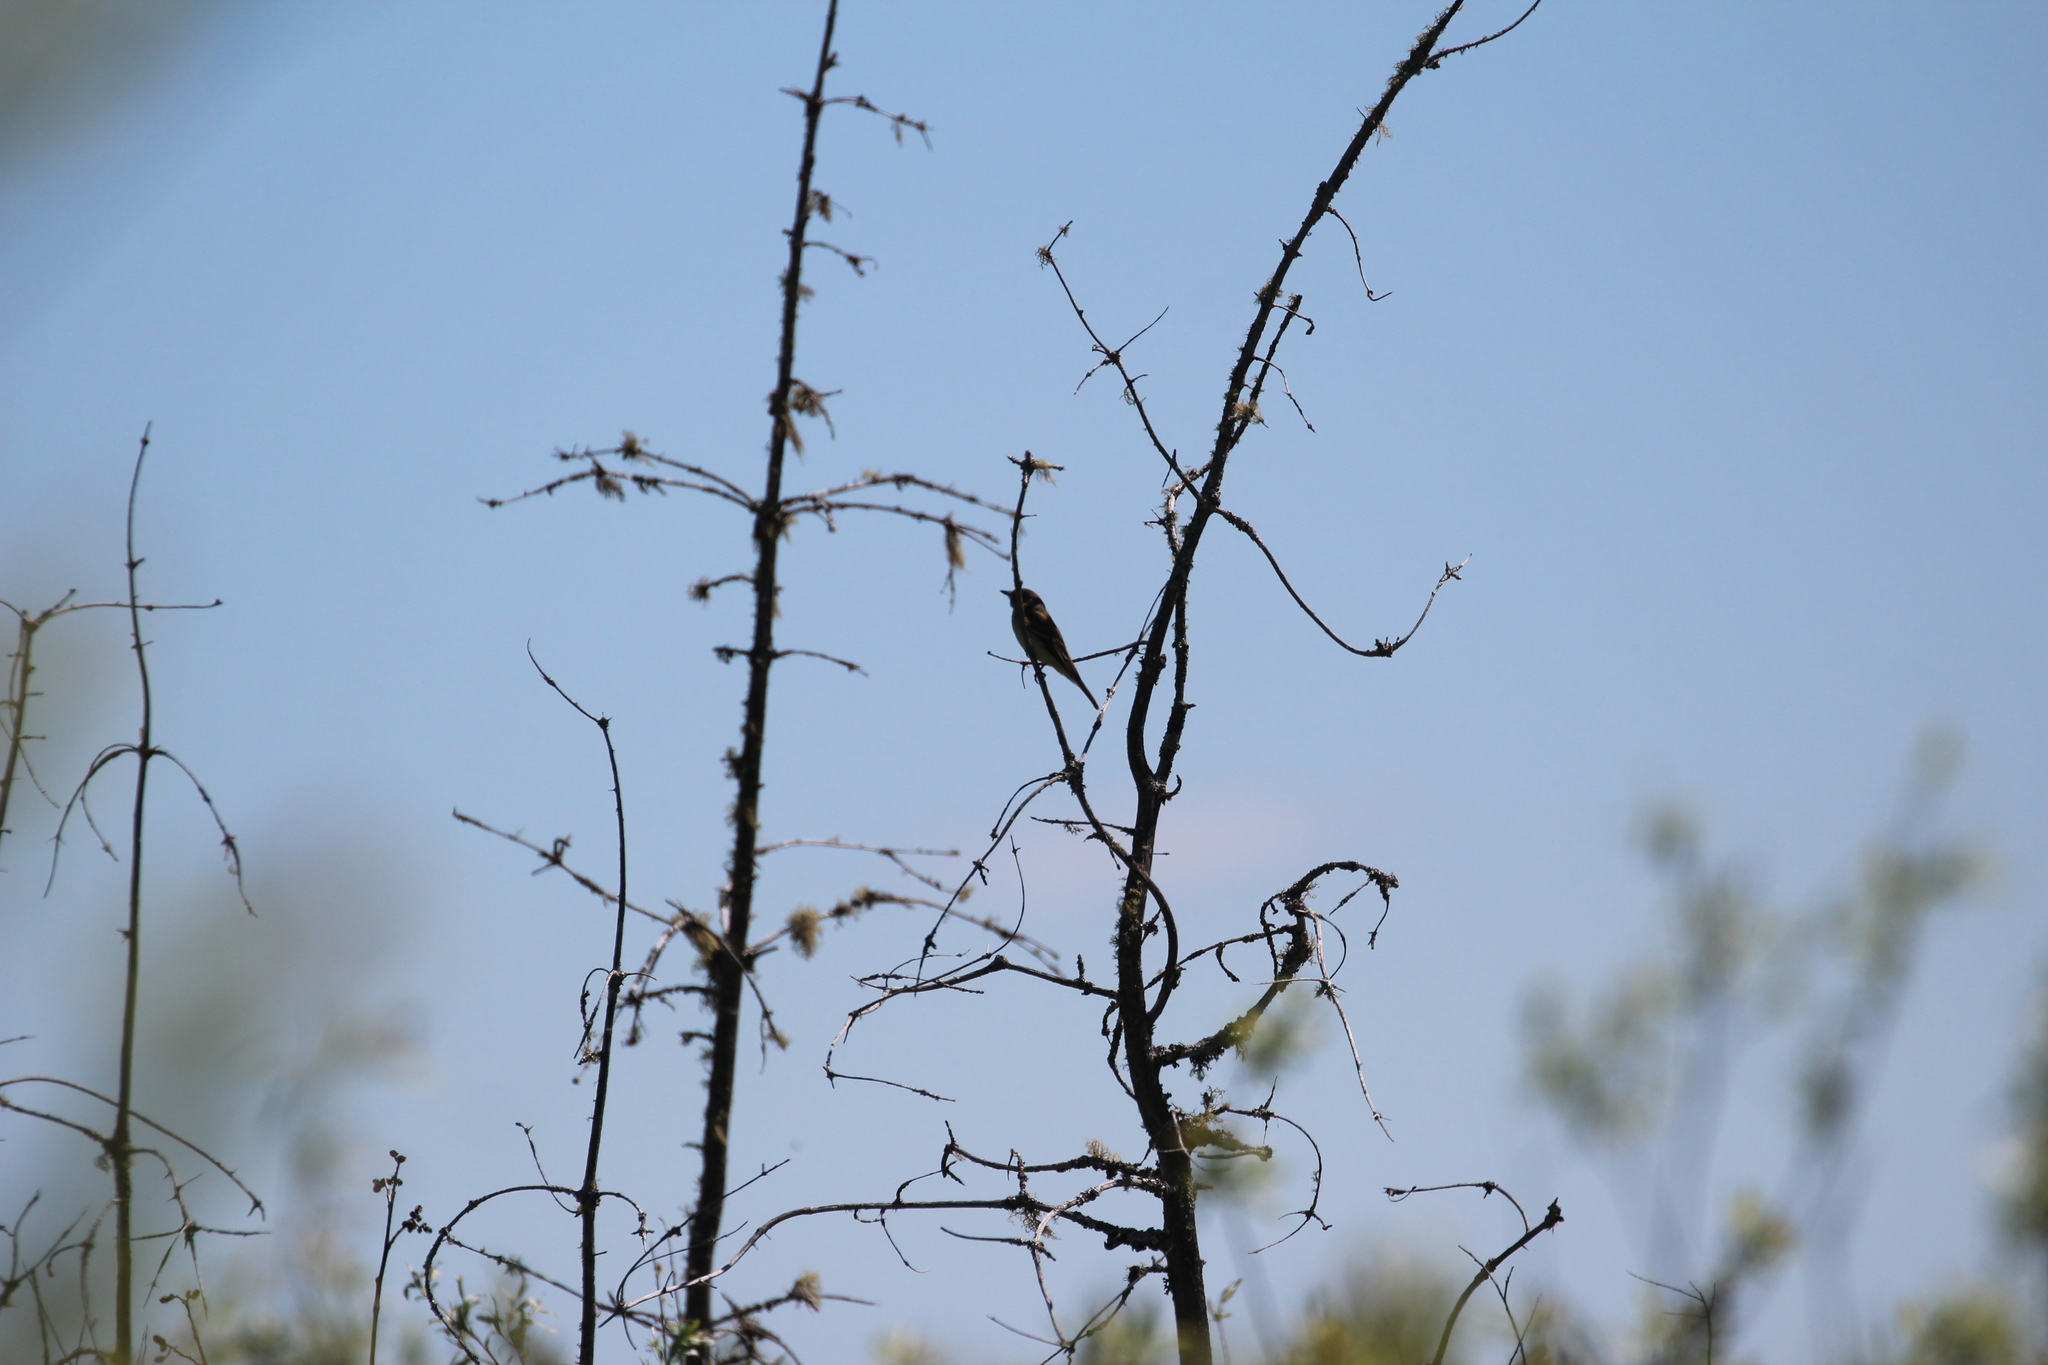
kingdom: Animalia
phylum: Chordata
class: Aves
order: Passeriformes
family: Tyrannidae
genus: Empidonax
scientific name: Empidonax alnorum
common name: Alder flycatcher
